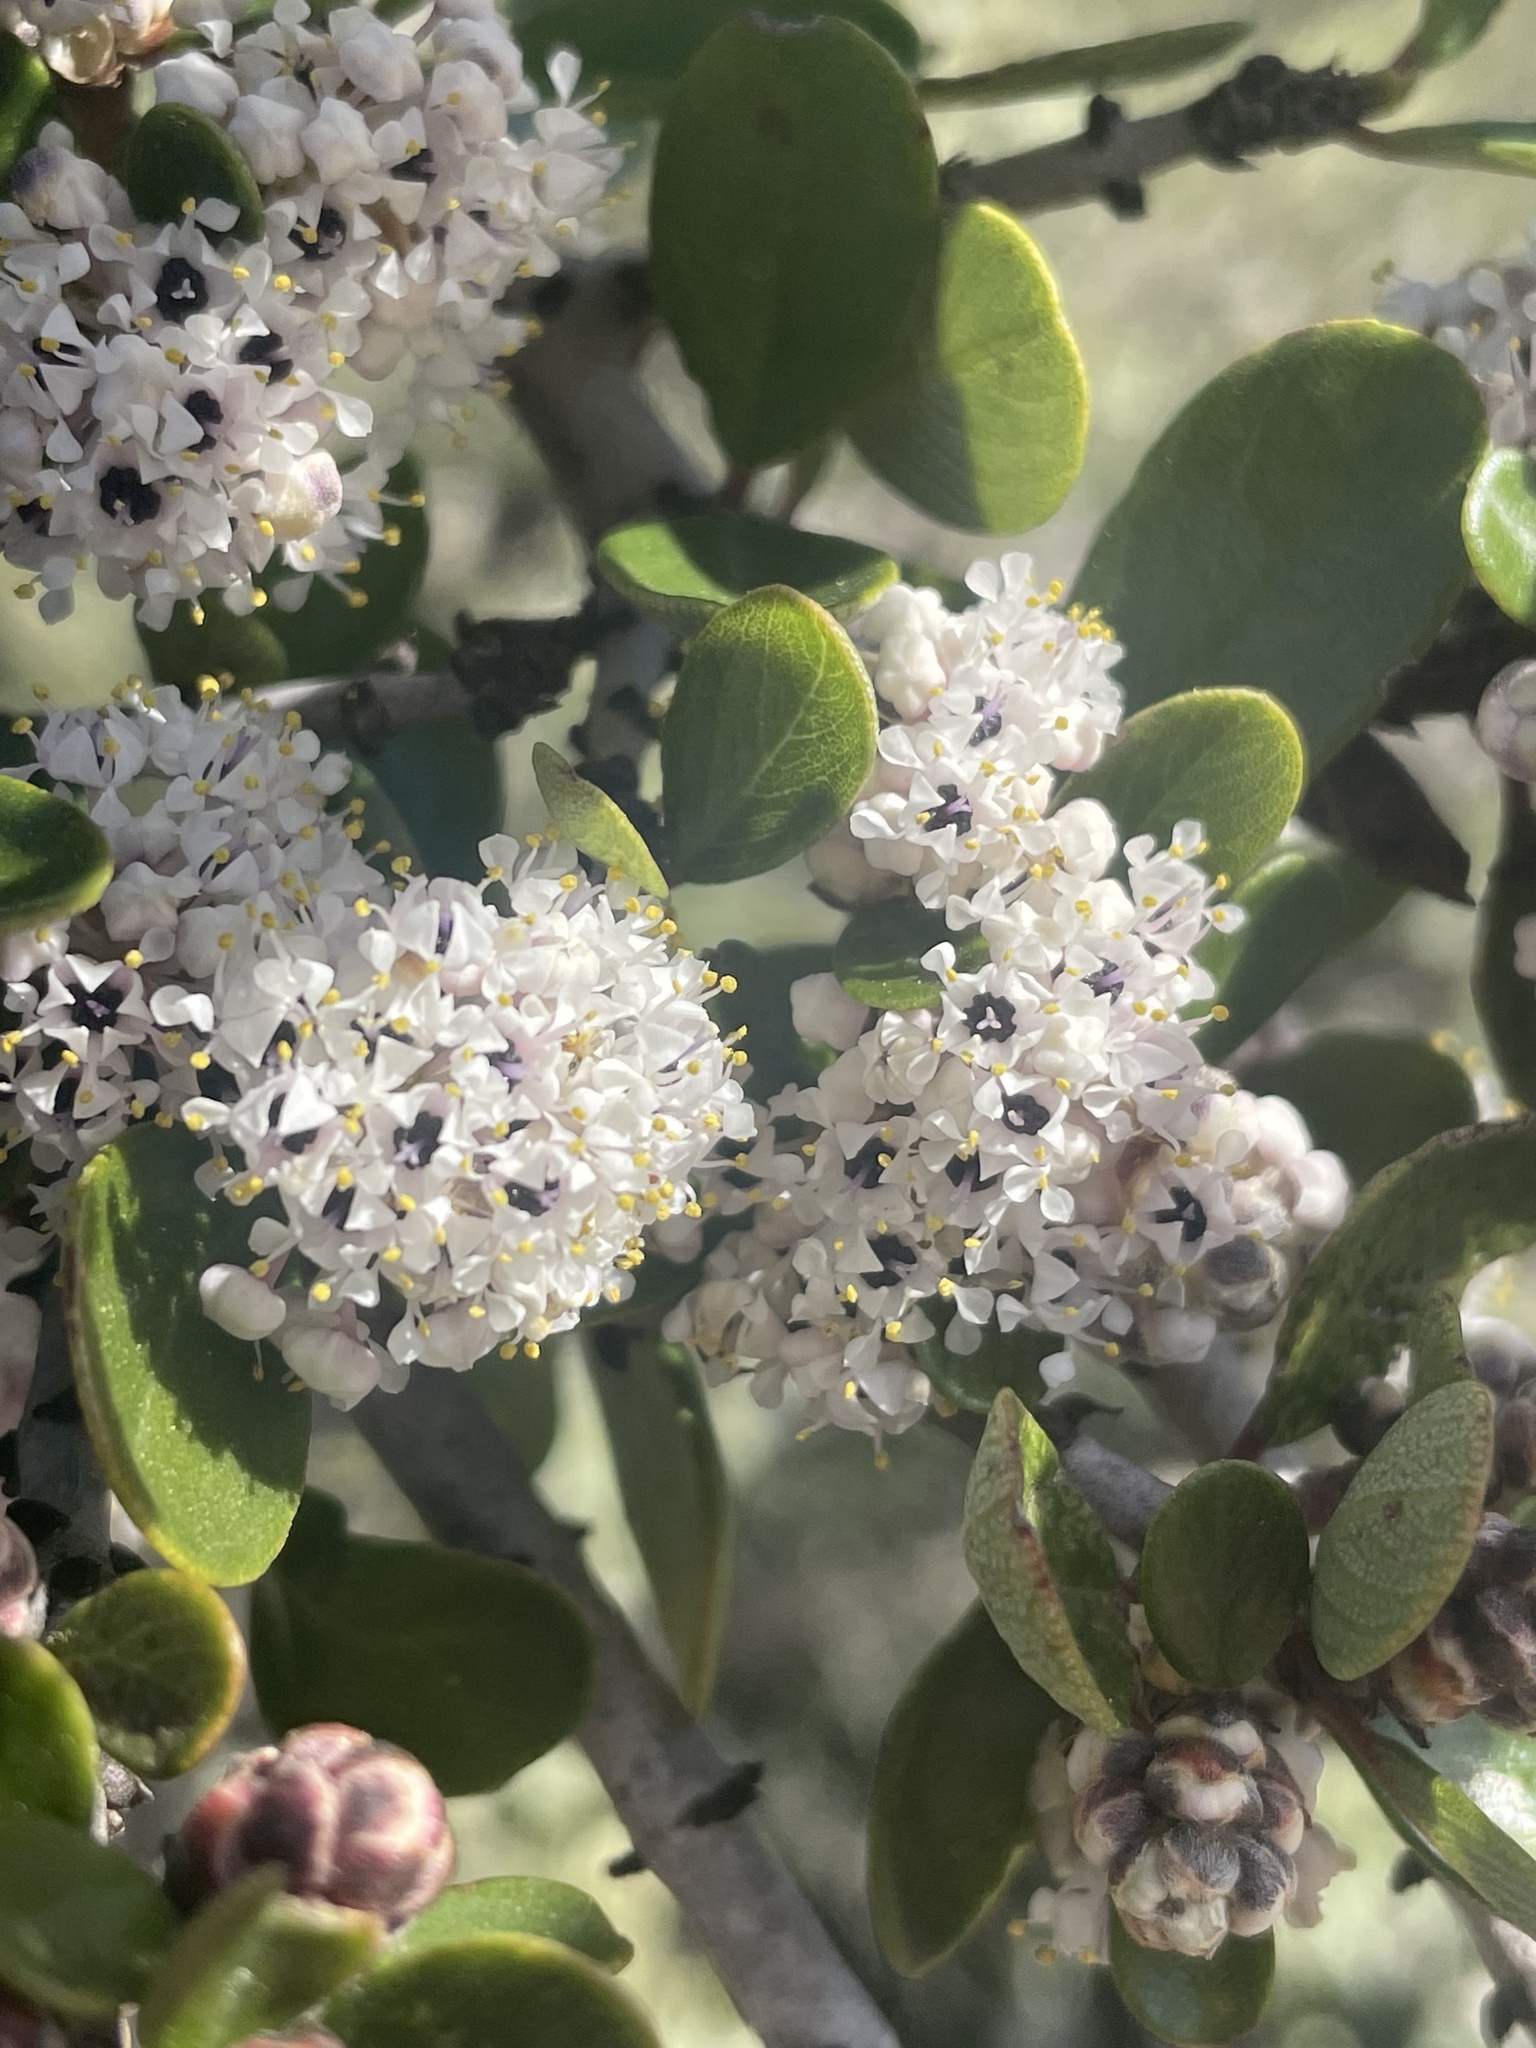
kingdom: Plantae
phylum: Tracheophyta
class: Magnoliopsida
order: Rosales
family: Rhamnaceae
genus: Ceanothus
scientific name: Ceanothus cuneatus
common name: Cuneate ceanothus
